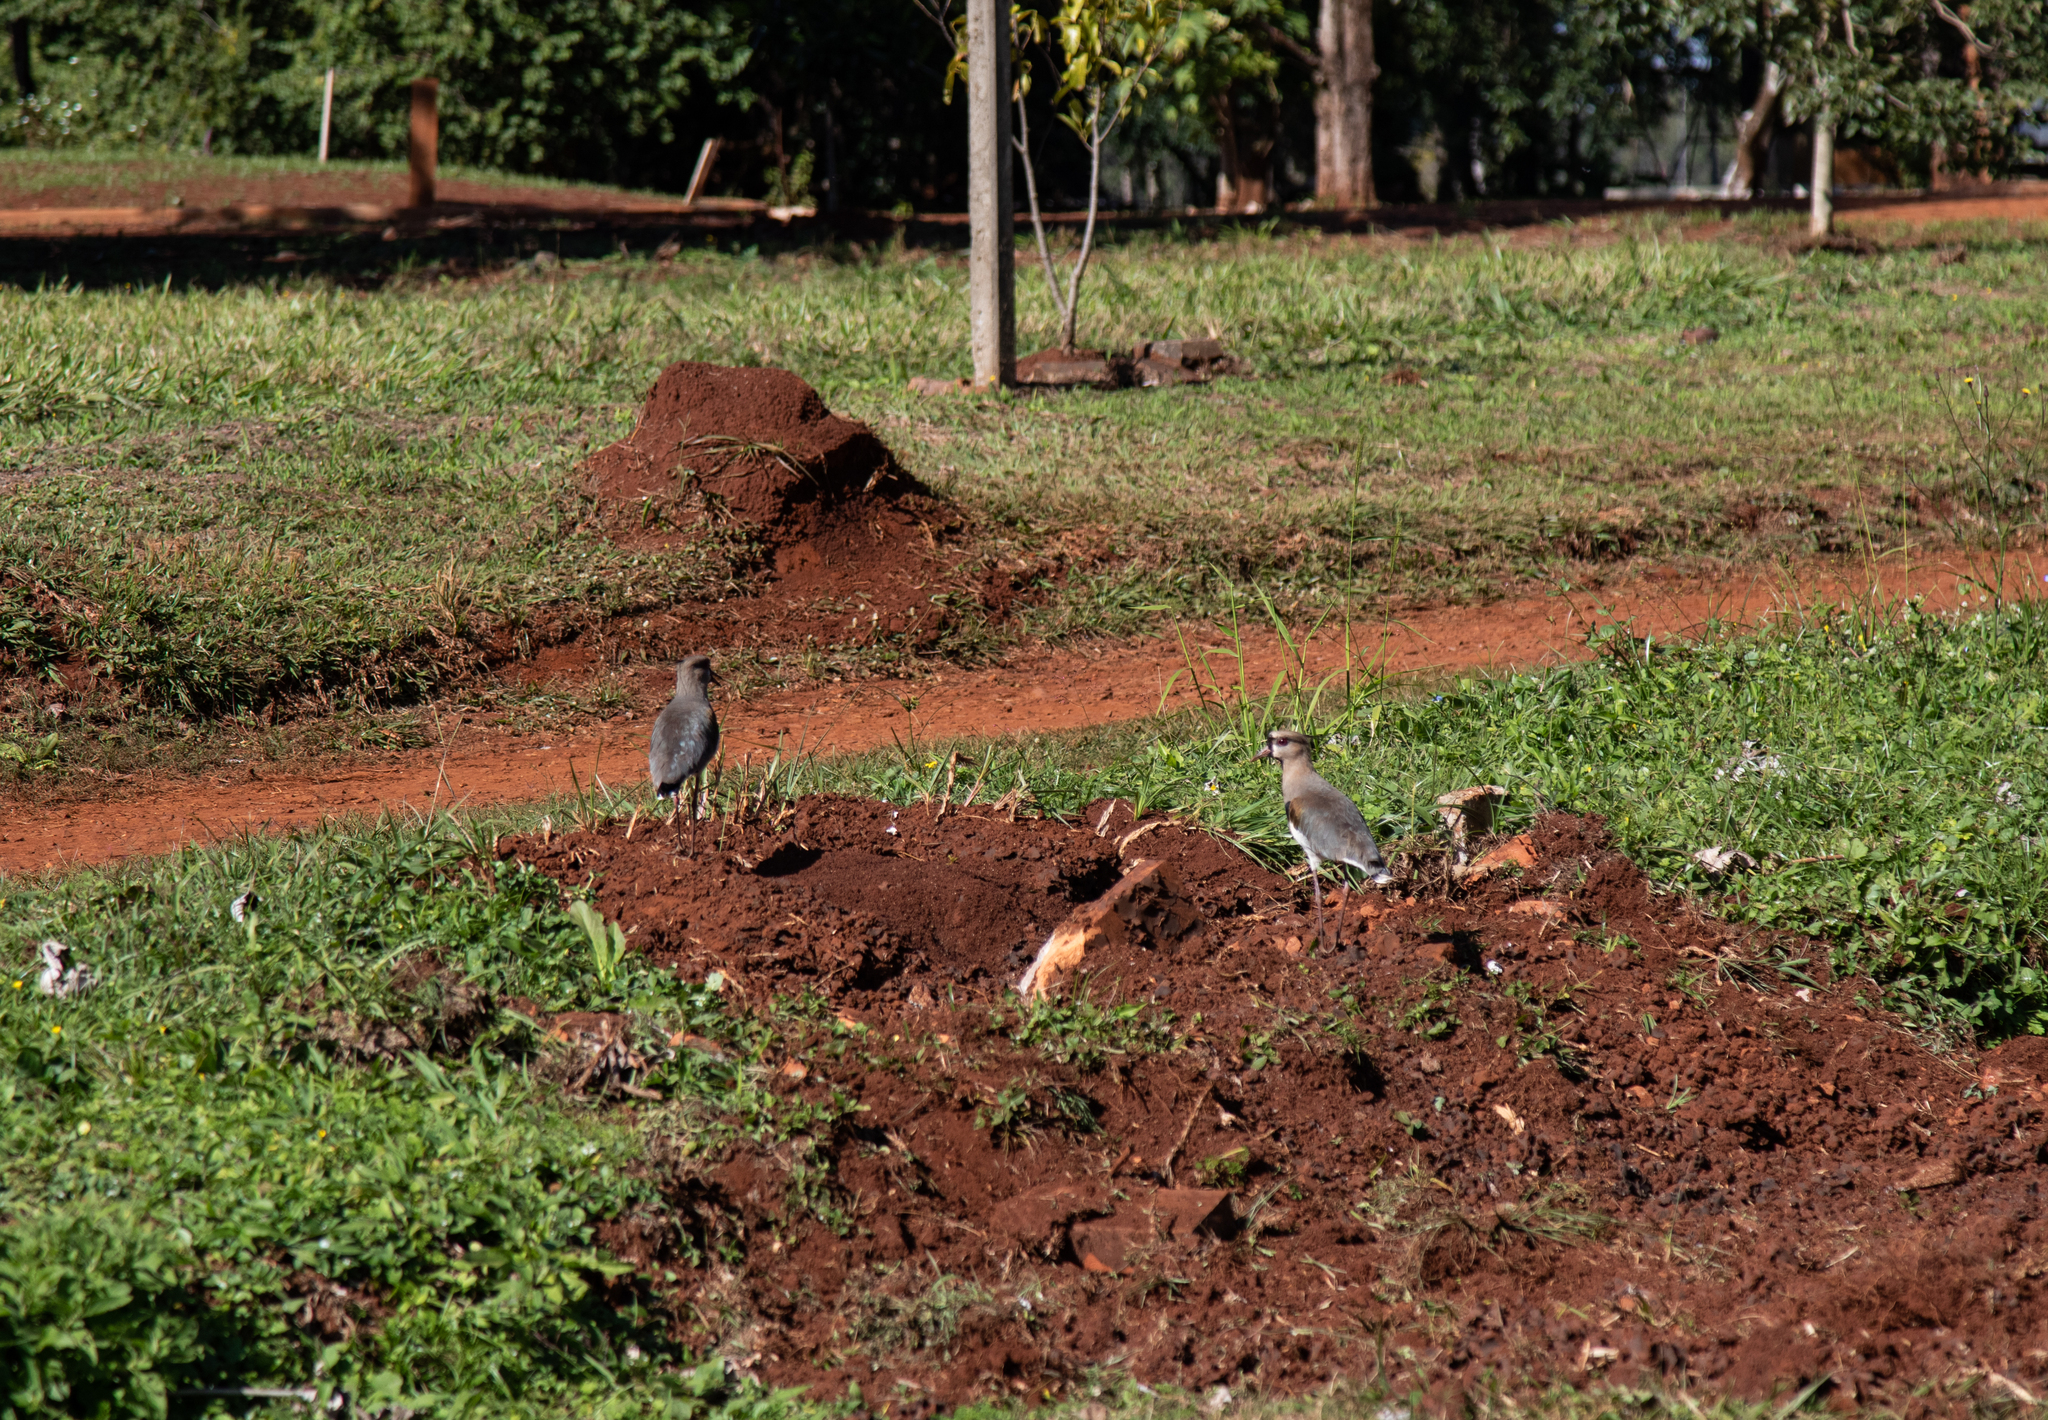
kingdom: Animalia
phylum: Chordata
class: Aves
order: Charadriiformes
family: Charadriidae
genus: Vanellus
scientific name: Vanellus chilensis
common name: Southern lapwing
